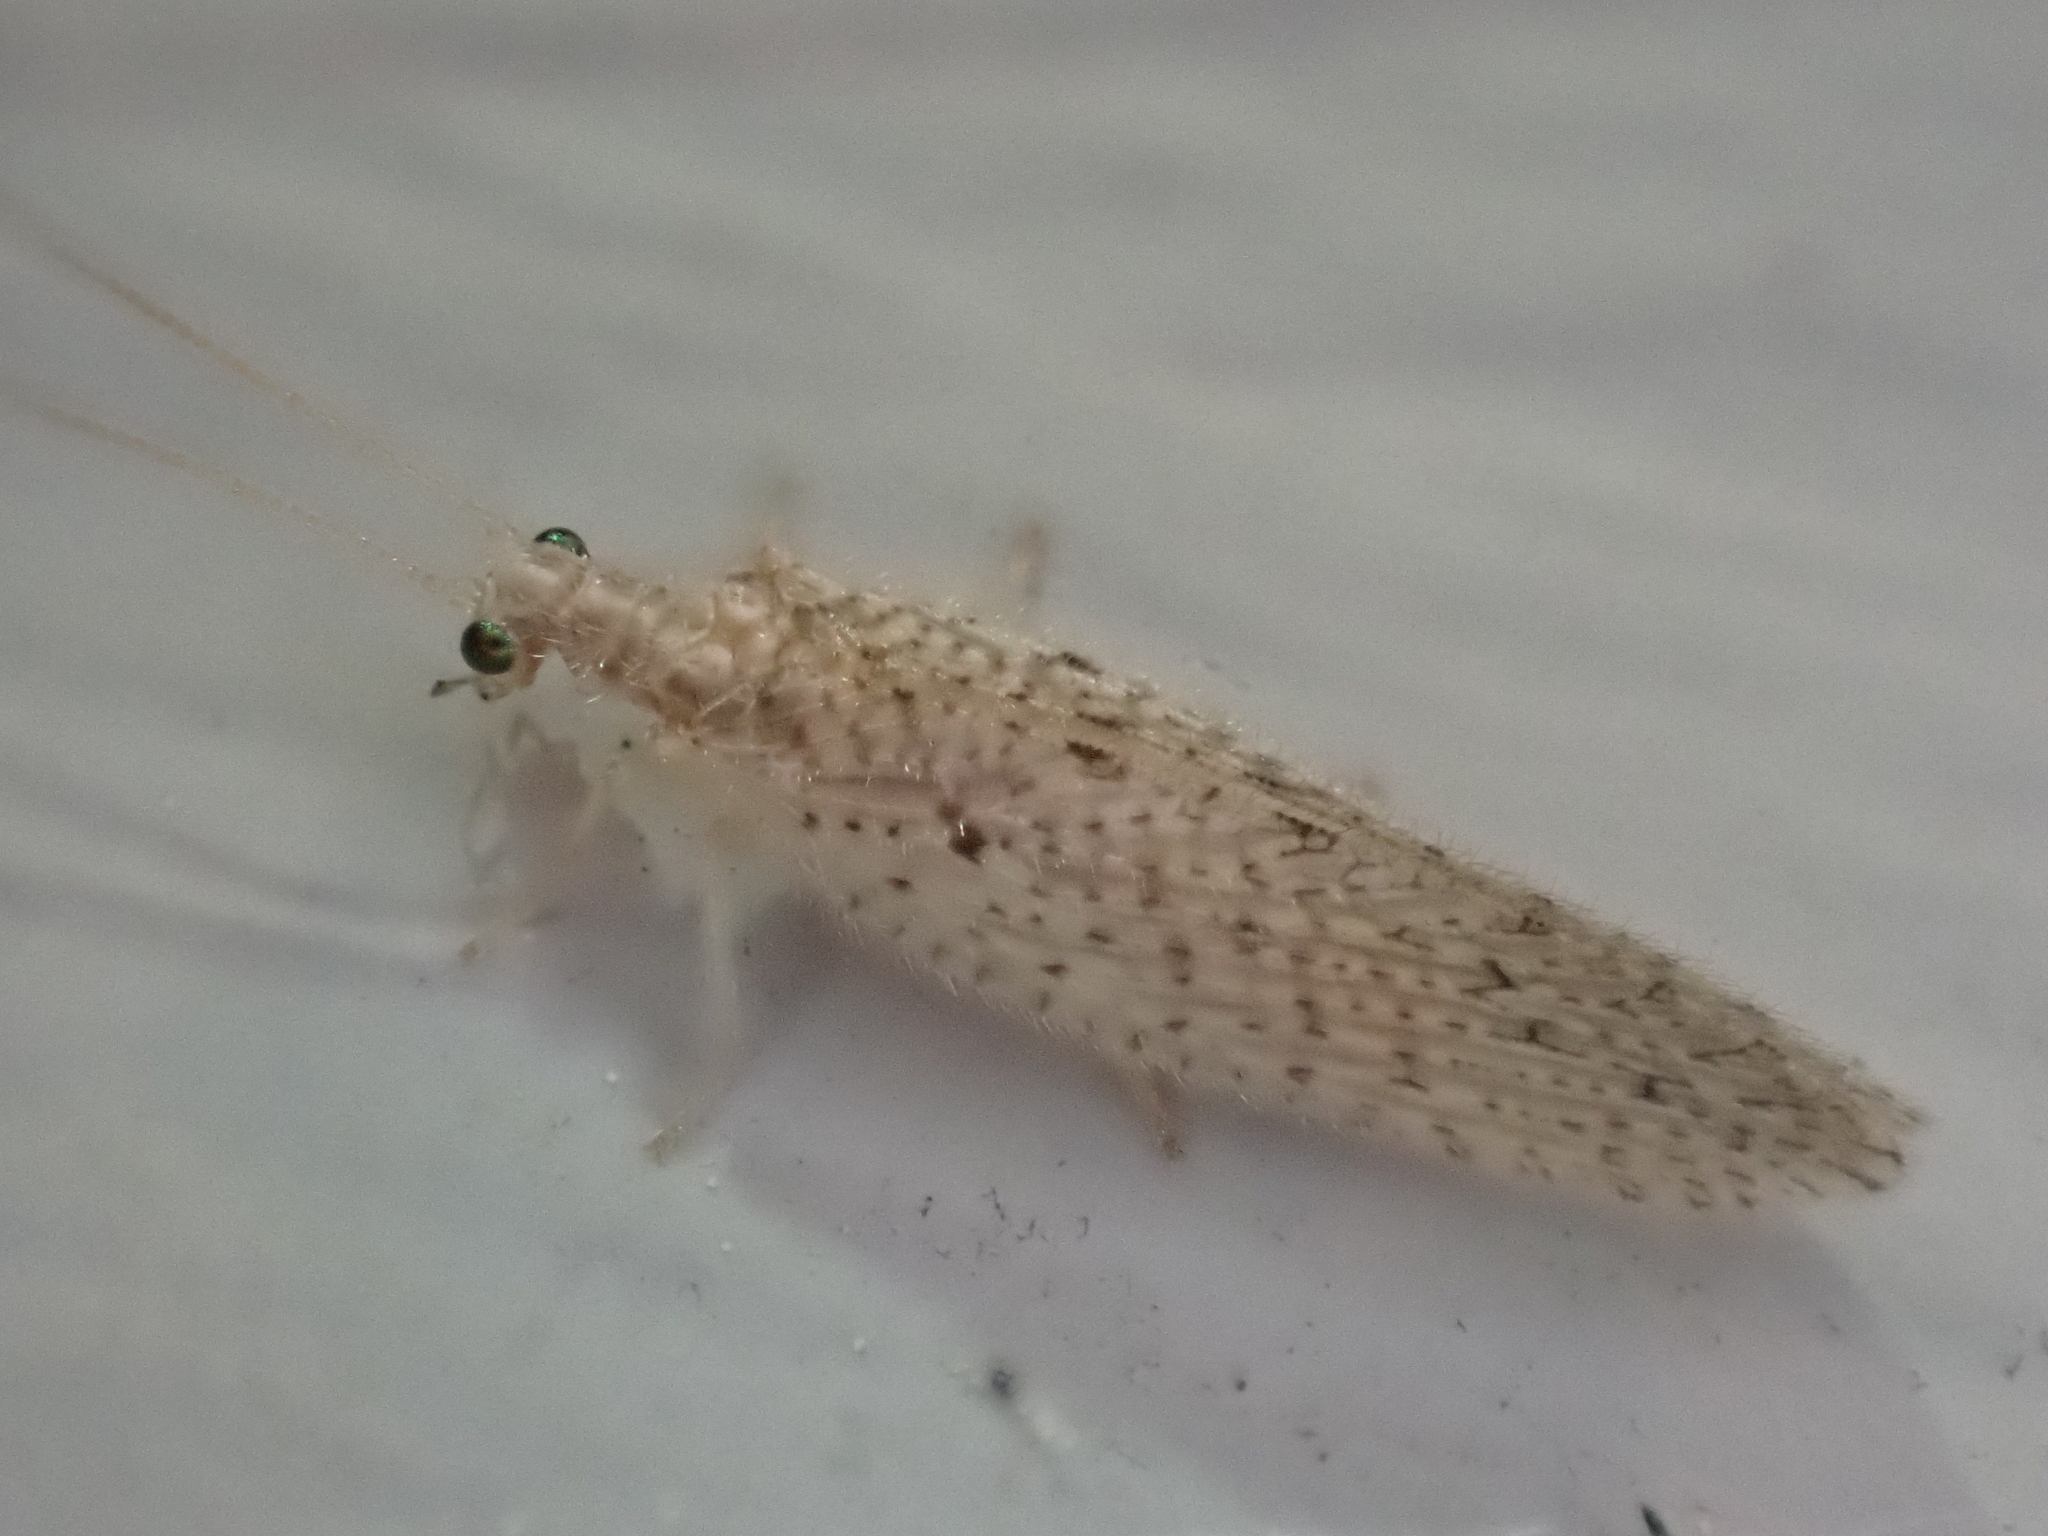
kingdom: Animalia
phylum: Arthropoda
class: Insecta
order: Neuroptera
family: Hemerobiidae
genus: Micromus
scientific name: Micromus subanticus
